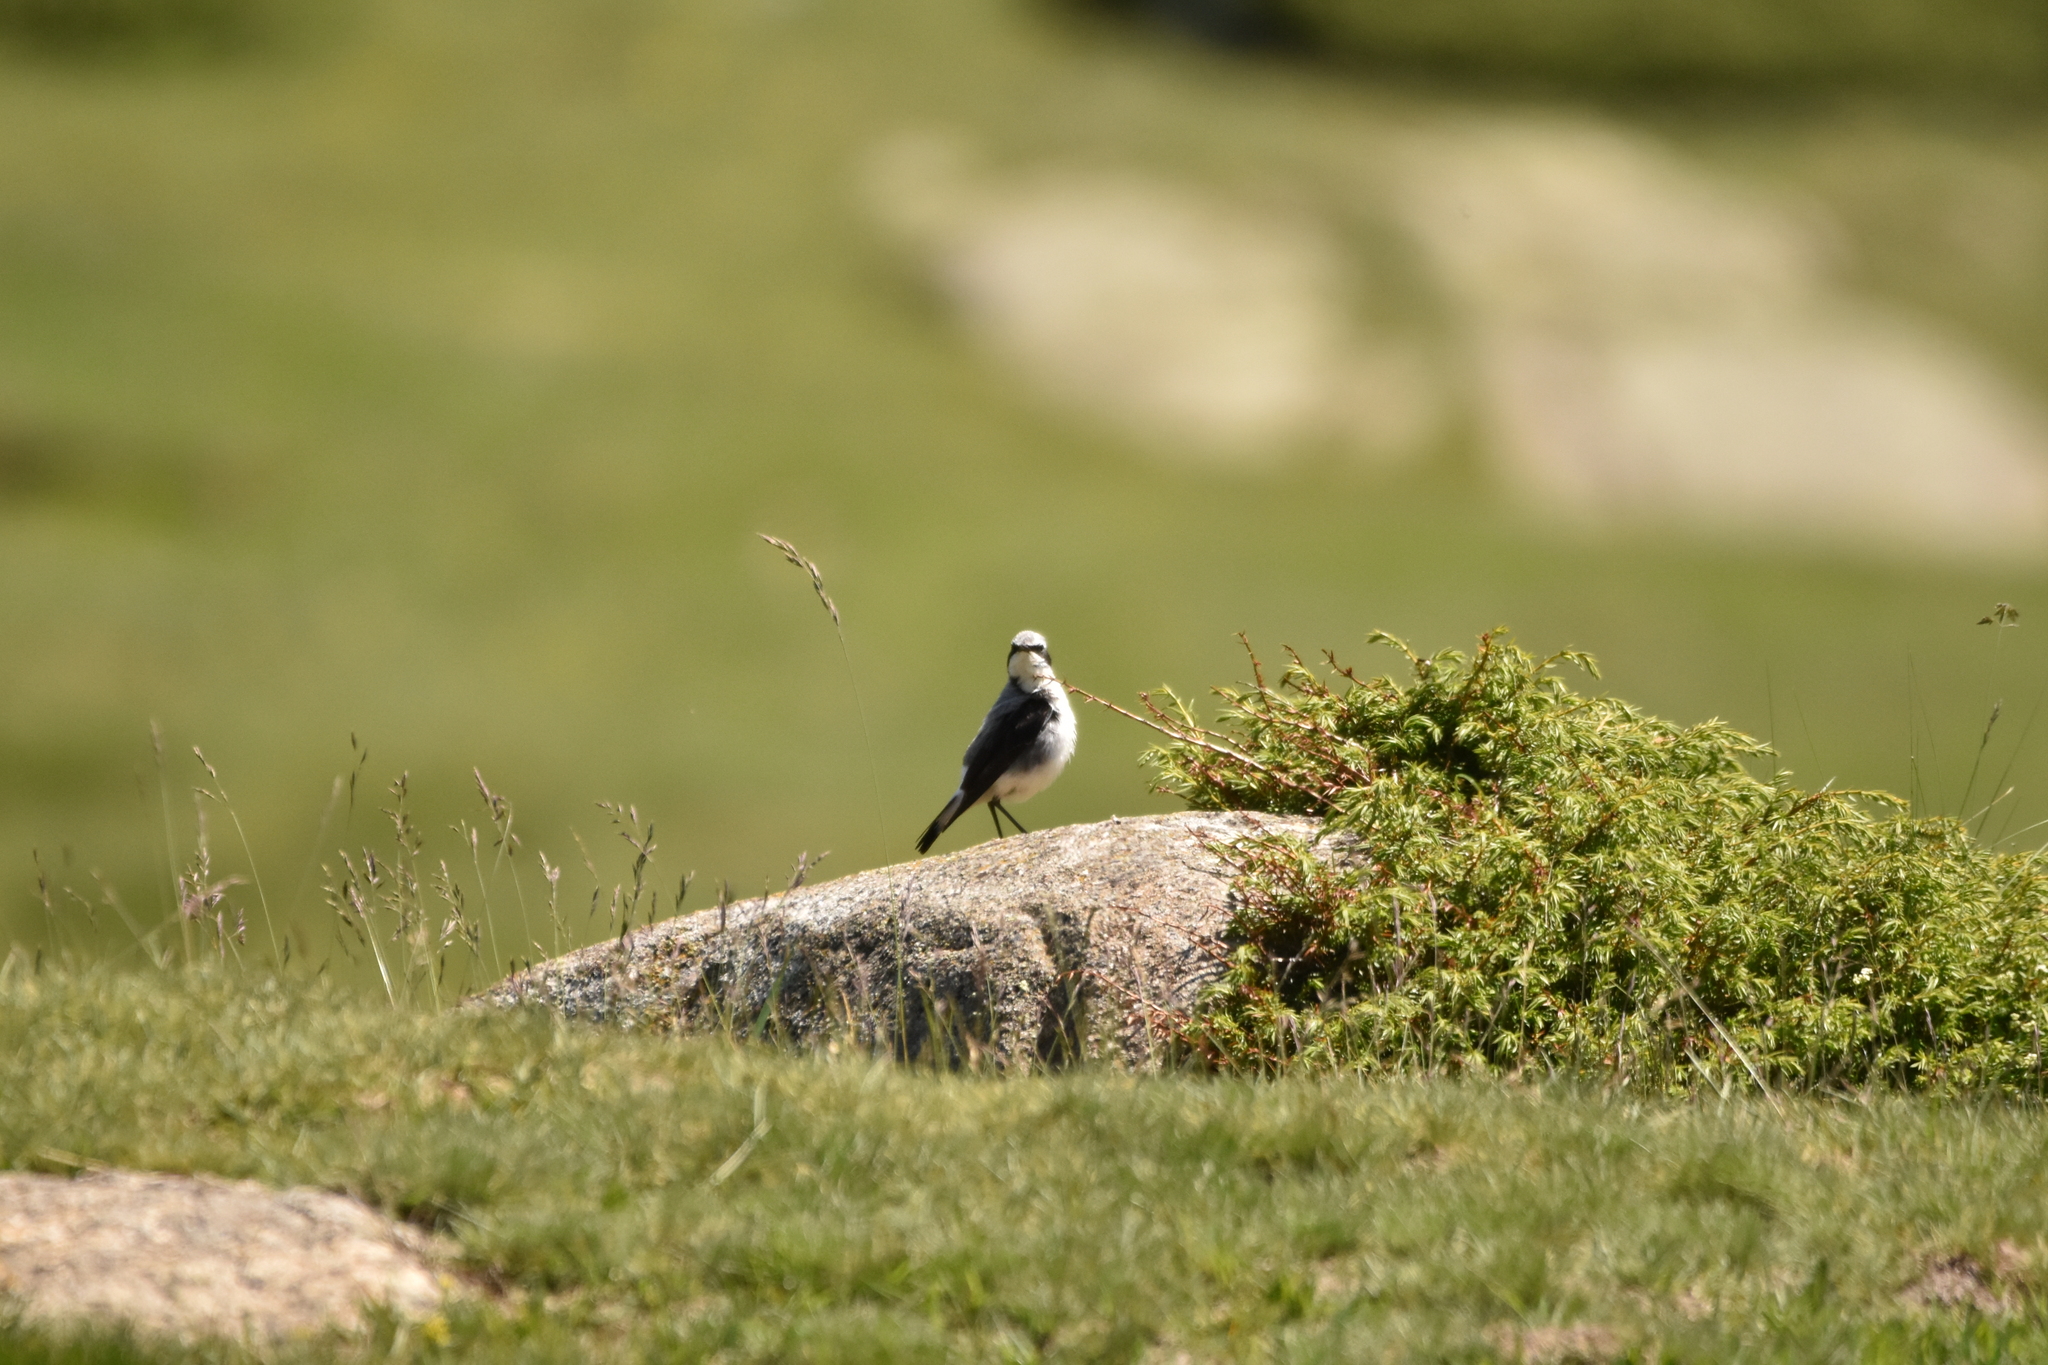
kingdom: Animalia
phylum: Chordata
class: Aves
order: Passeriformes
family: Muscicapidae
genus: Oenanthe
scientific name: Oenanthe oenanthe
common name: Northern wheatear
